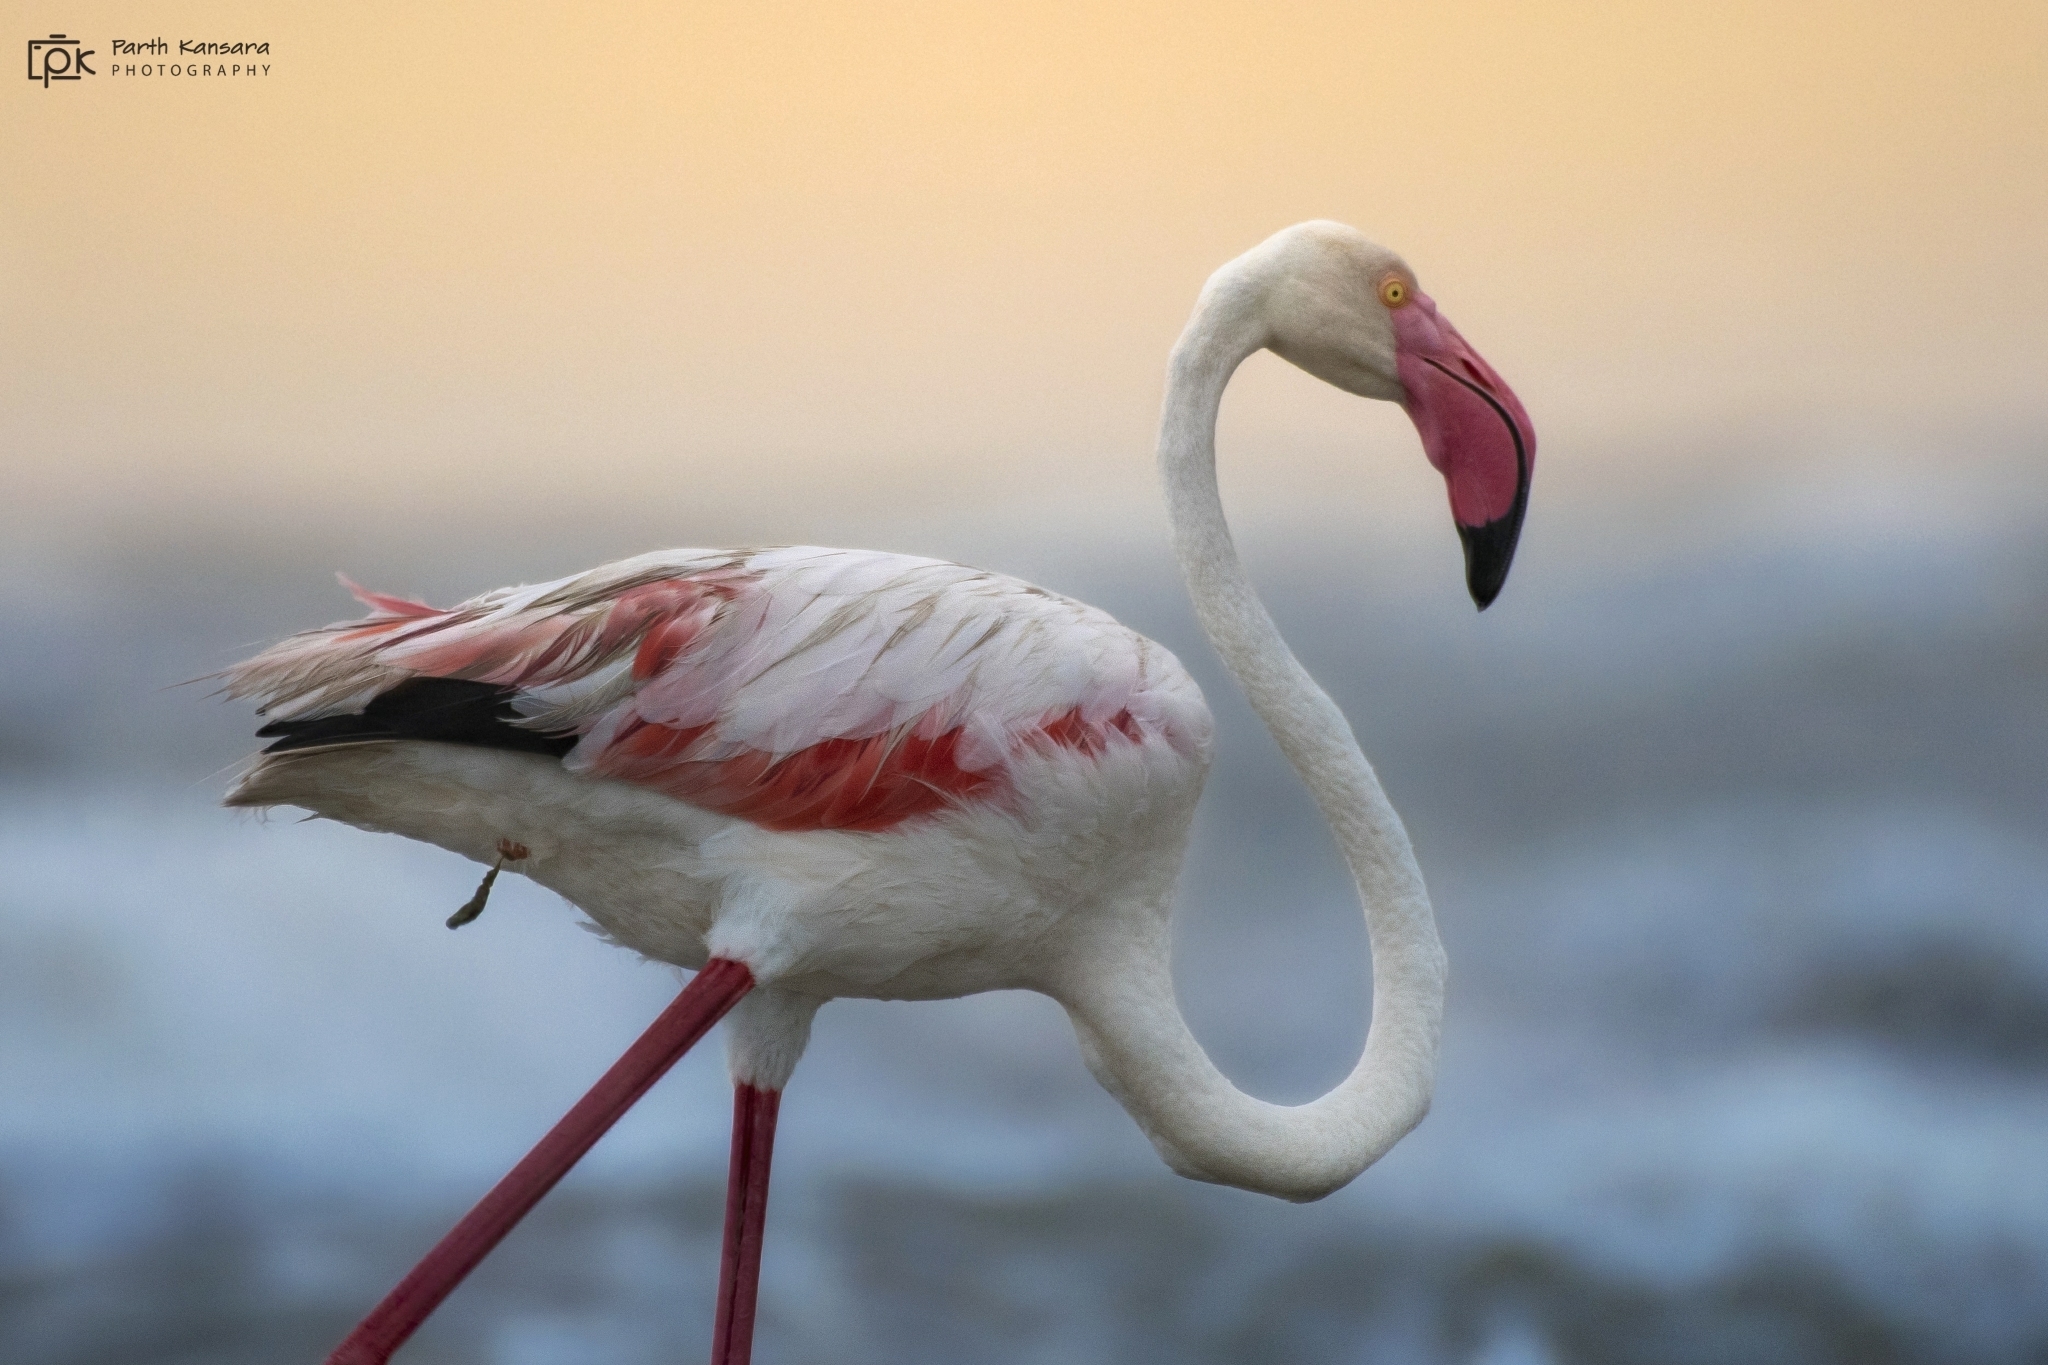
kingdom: Animalia
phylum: Chordata
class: Aves
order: Phoenicopteriformes
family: Phoenicopteridae
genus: Phoenicopterus
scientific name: Phoenicopterus roseus
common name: Greater flamingo
